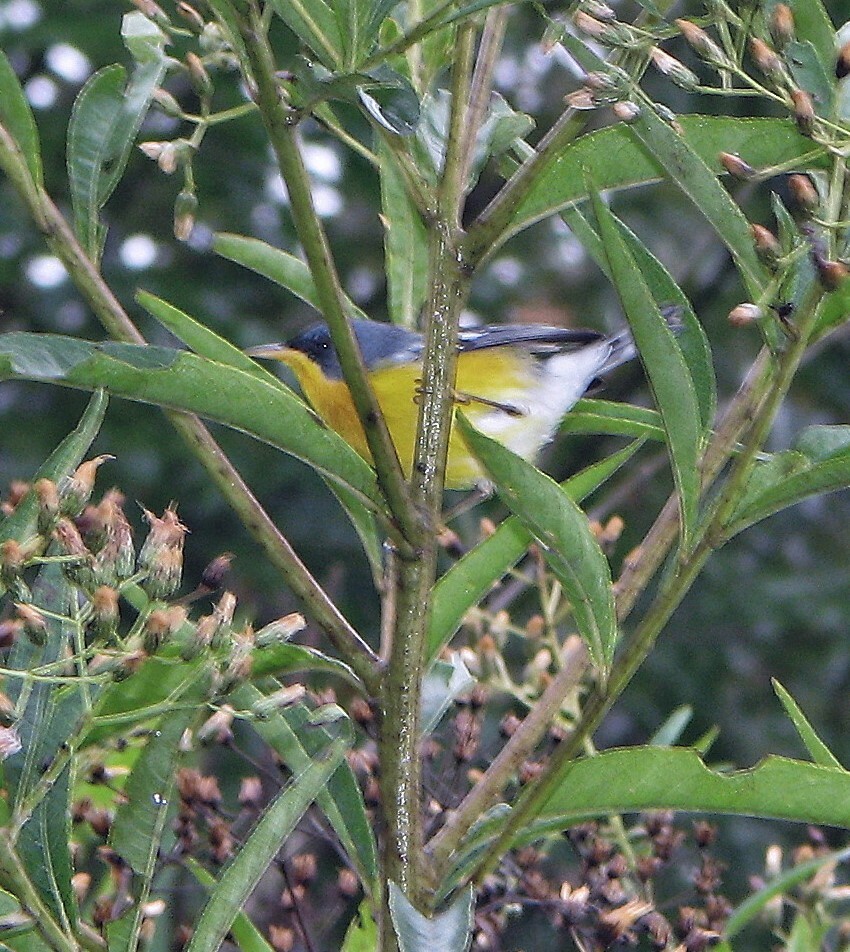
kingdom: Animalia
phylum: Chordata
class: Aves
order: Passeriformes
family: Parulidae
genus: Setophaga
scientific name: Setophaga pitiayumi
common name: Tropical parula
